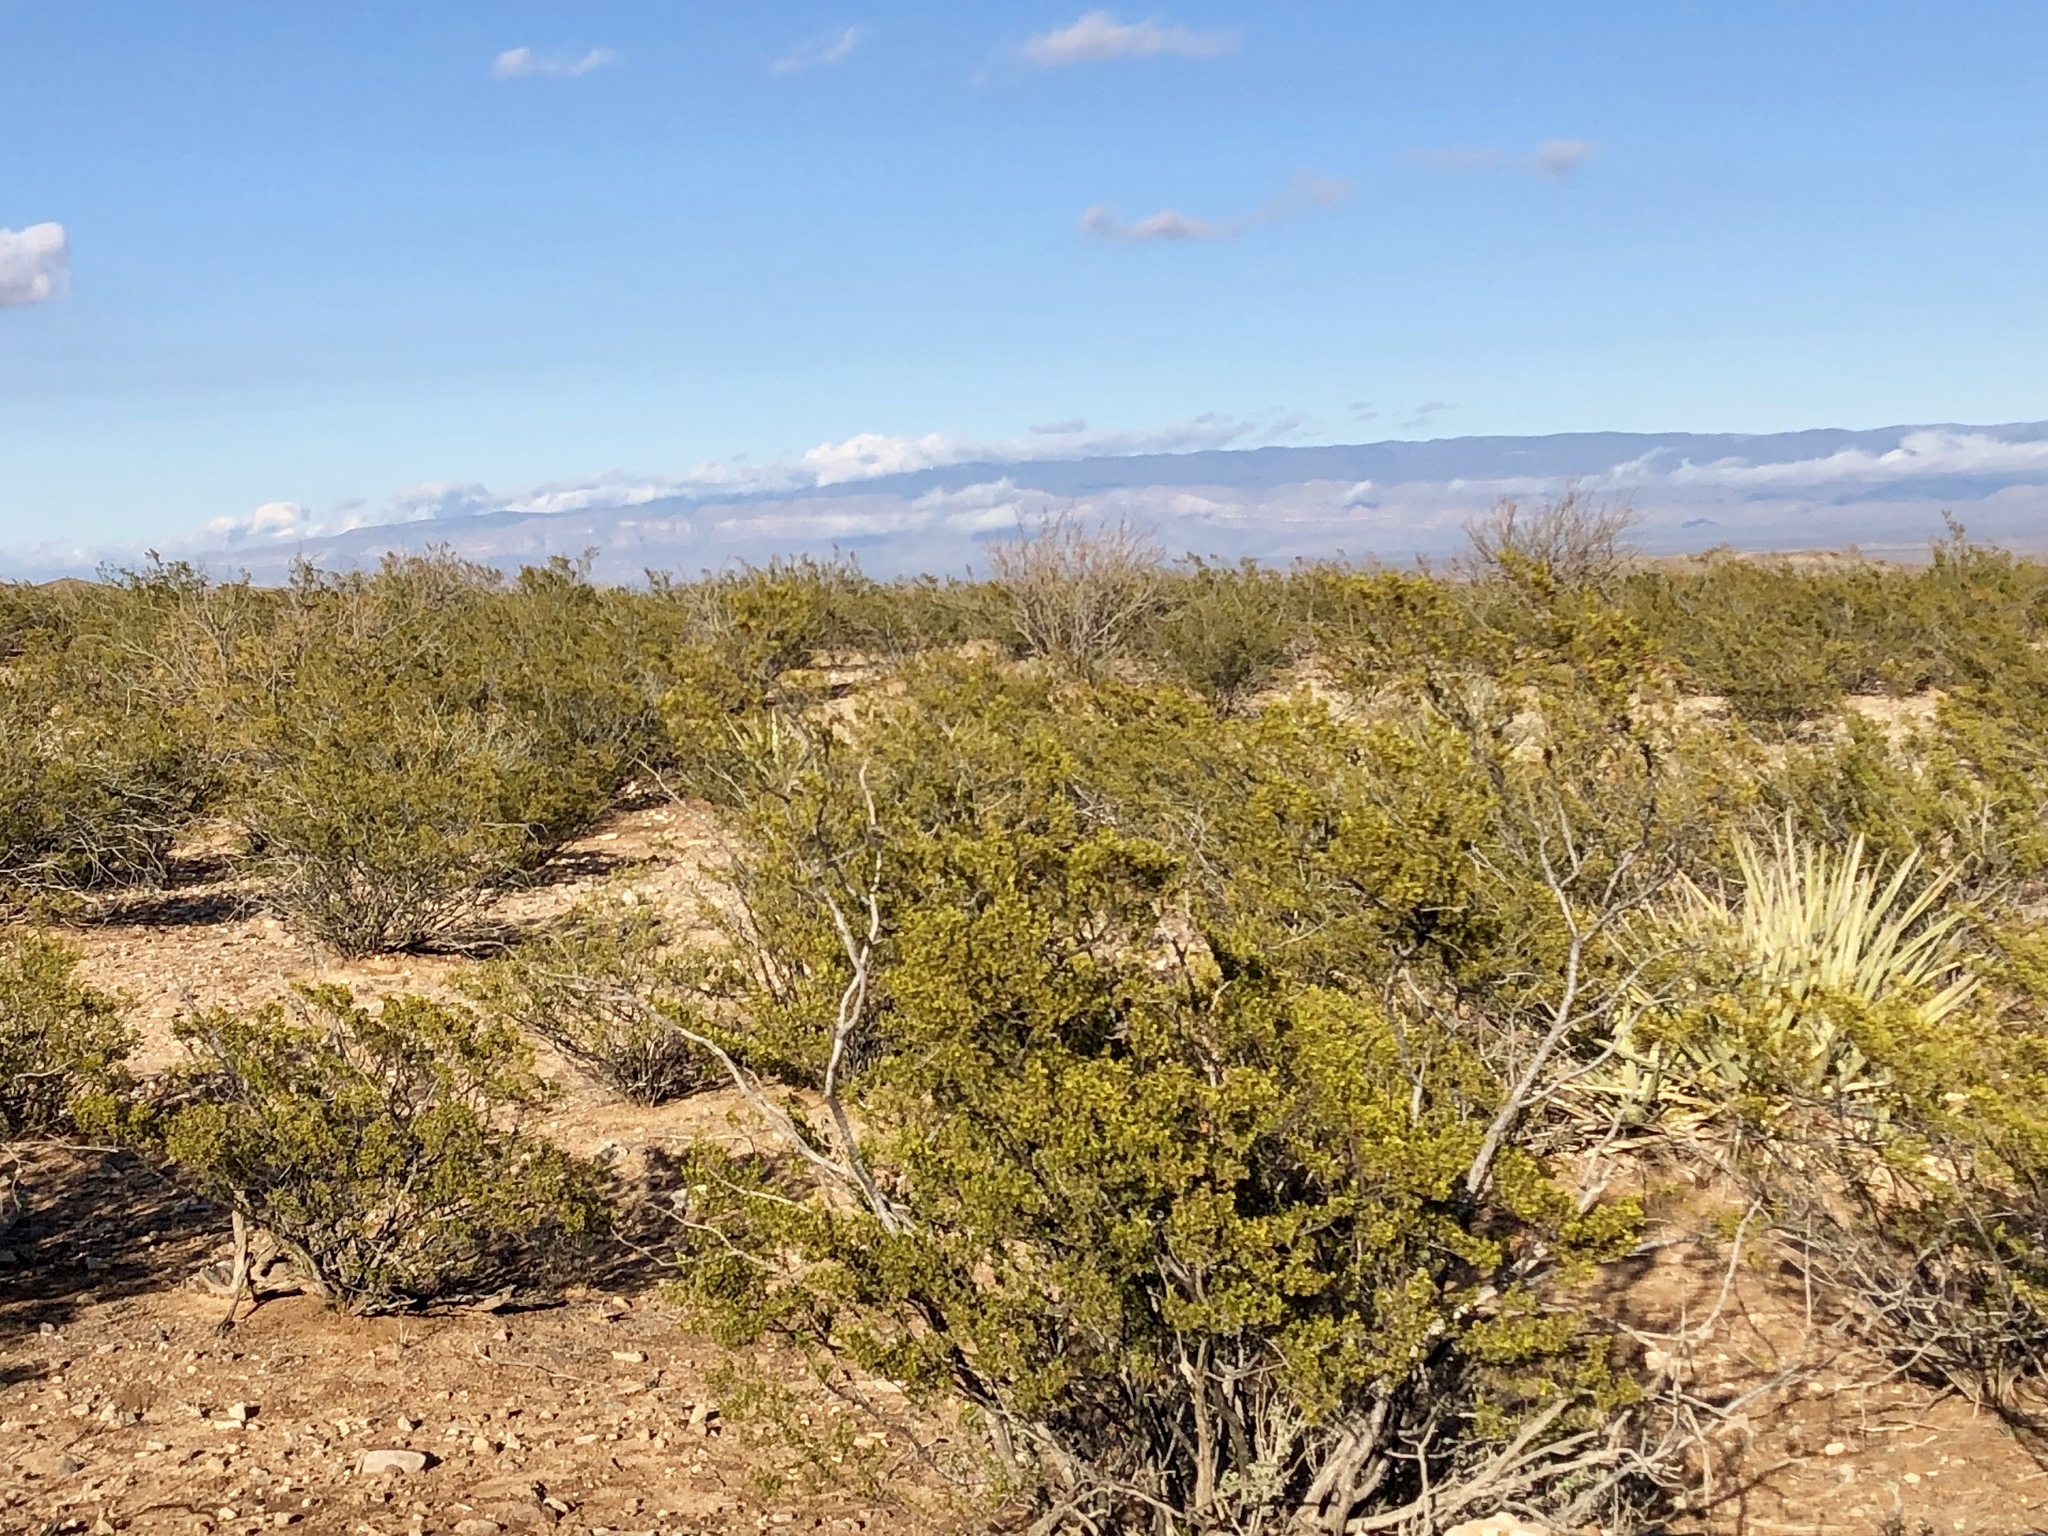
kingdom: Plantae
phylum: Tracheophyta
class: Magnoliopsida
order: Zygophyllales
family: Zygophyllaceae
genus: Larrea
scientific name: Larrea tridentata
